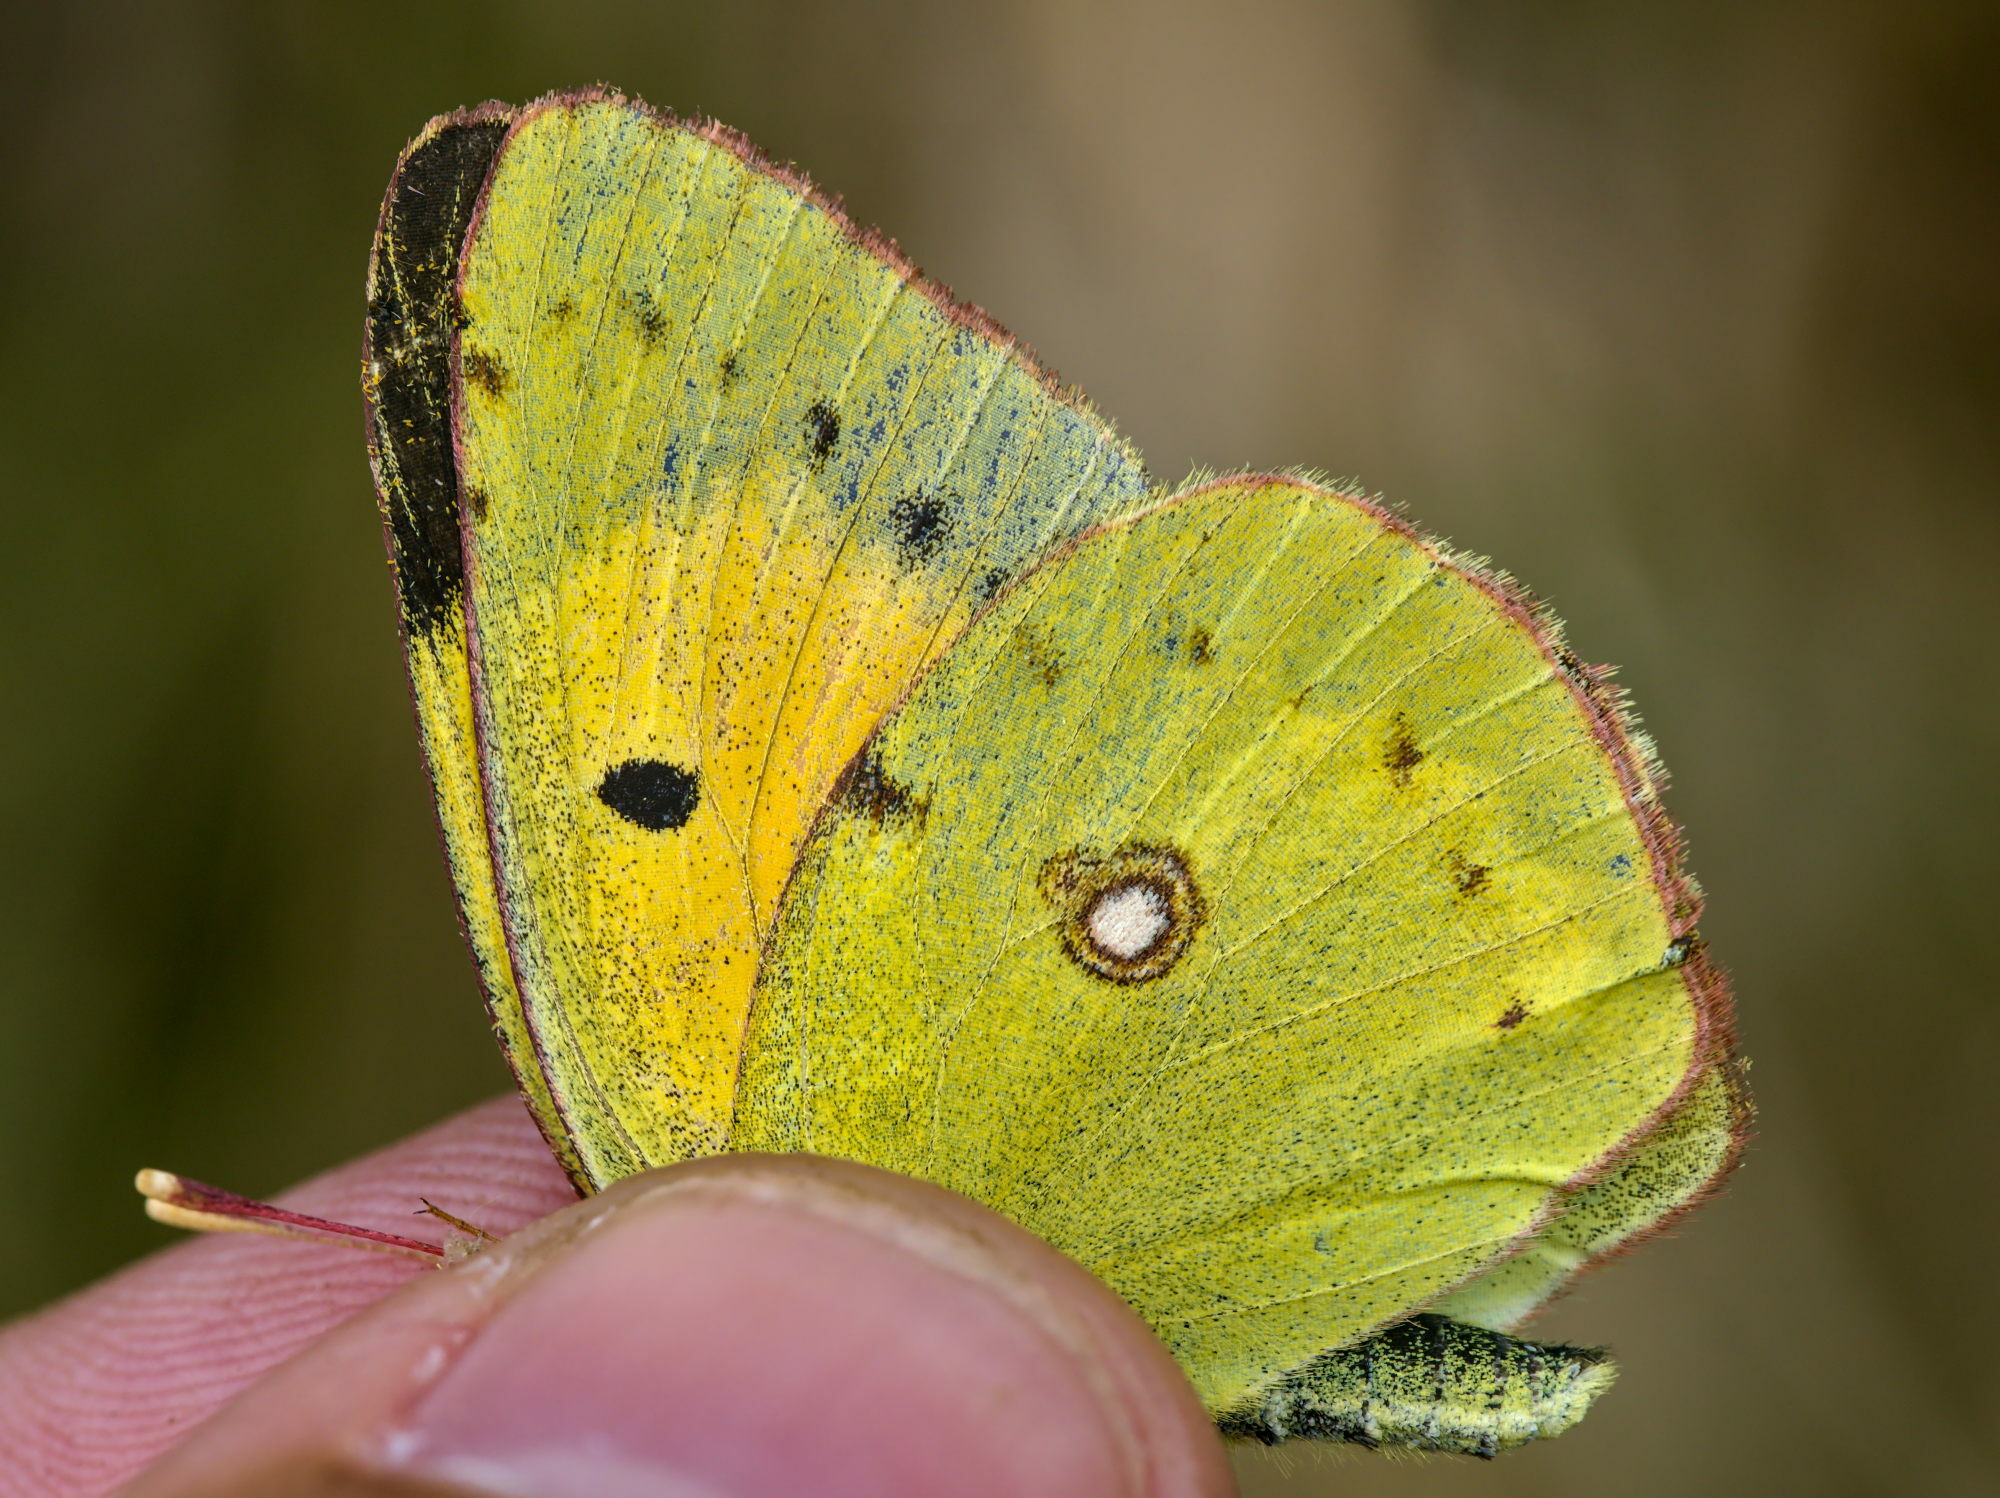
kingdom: Animalia
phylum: Arthropoda
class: Insecta
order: Lepidoptera
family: Pieridae
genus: Colias
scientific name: Colias croceus
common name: Clouded yellow
